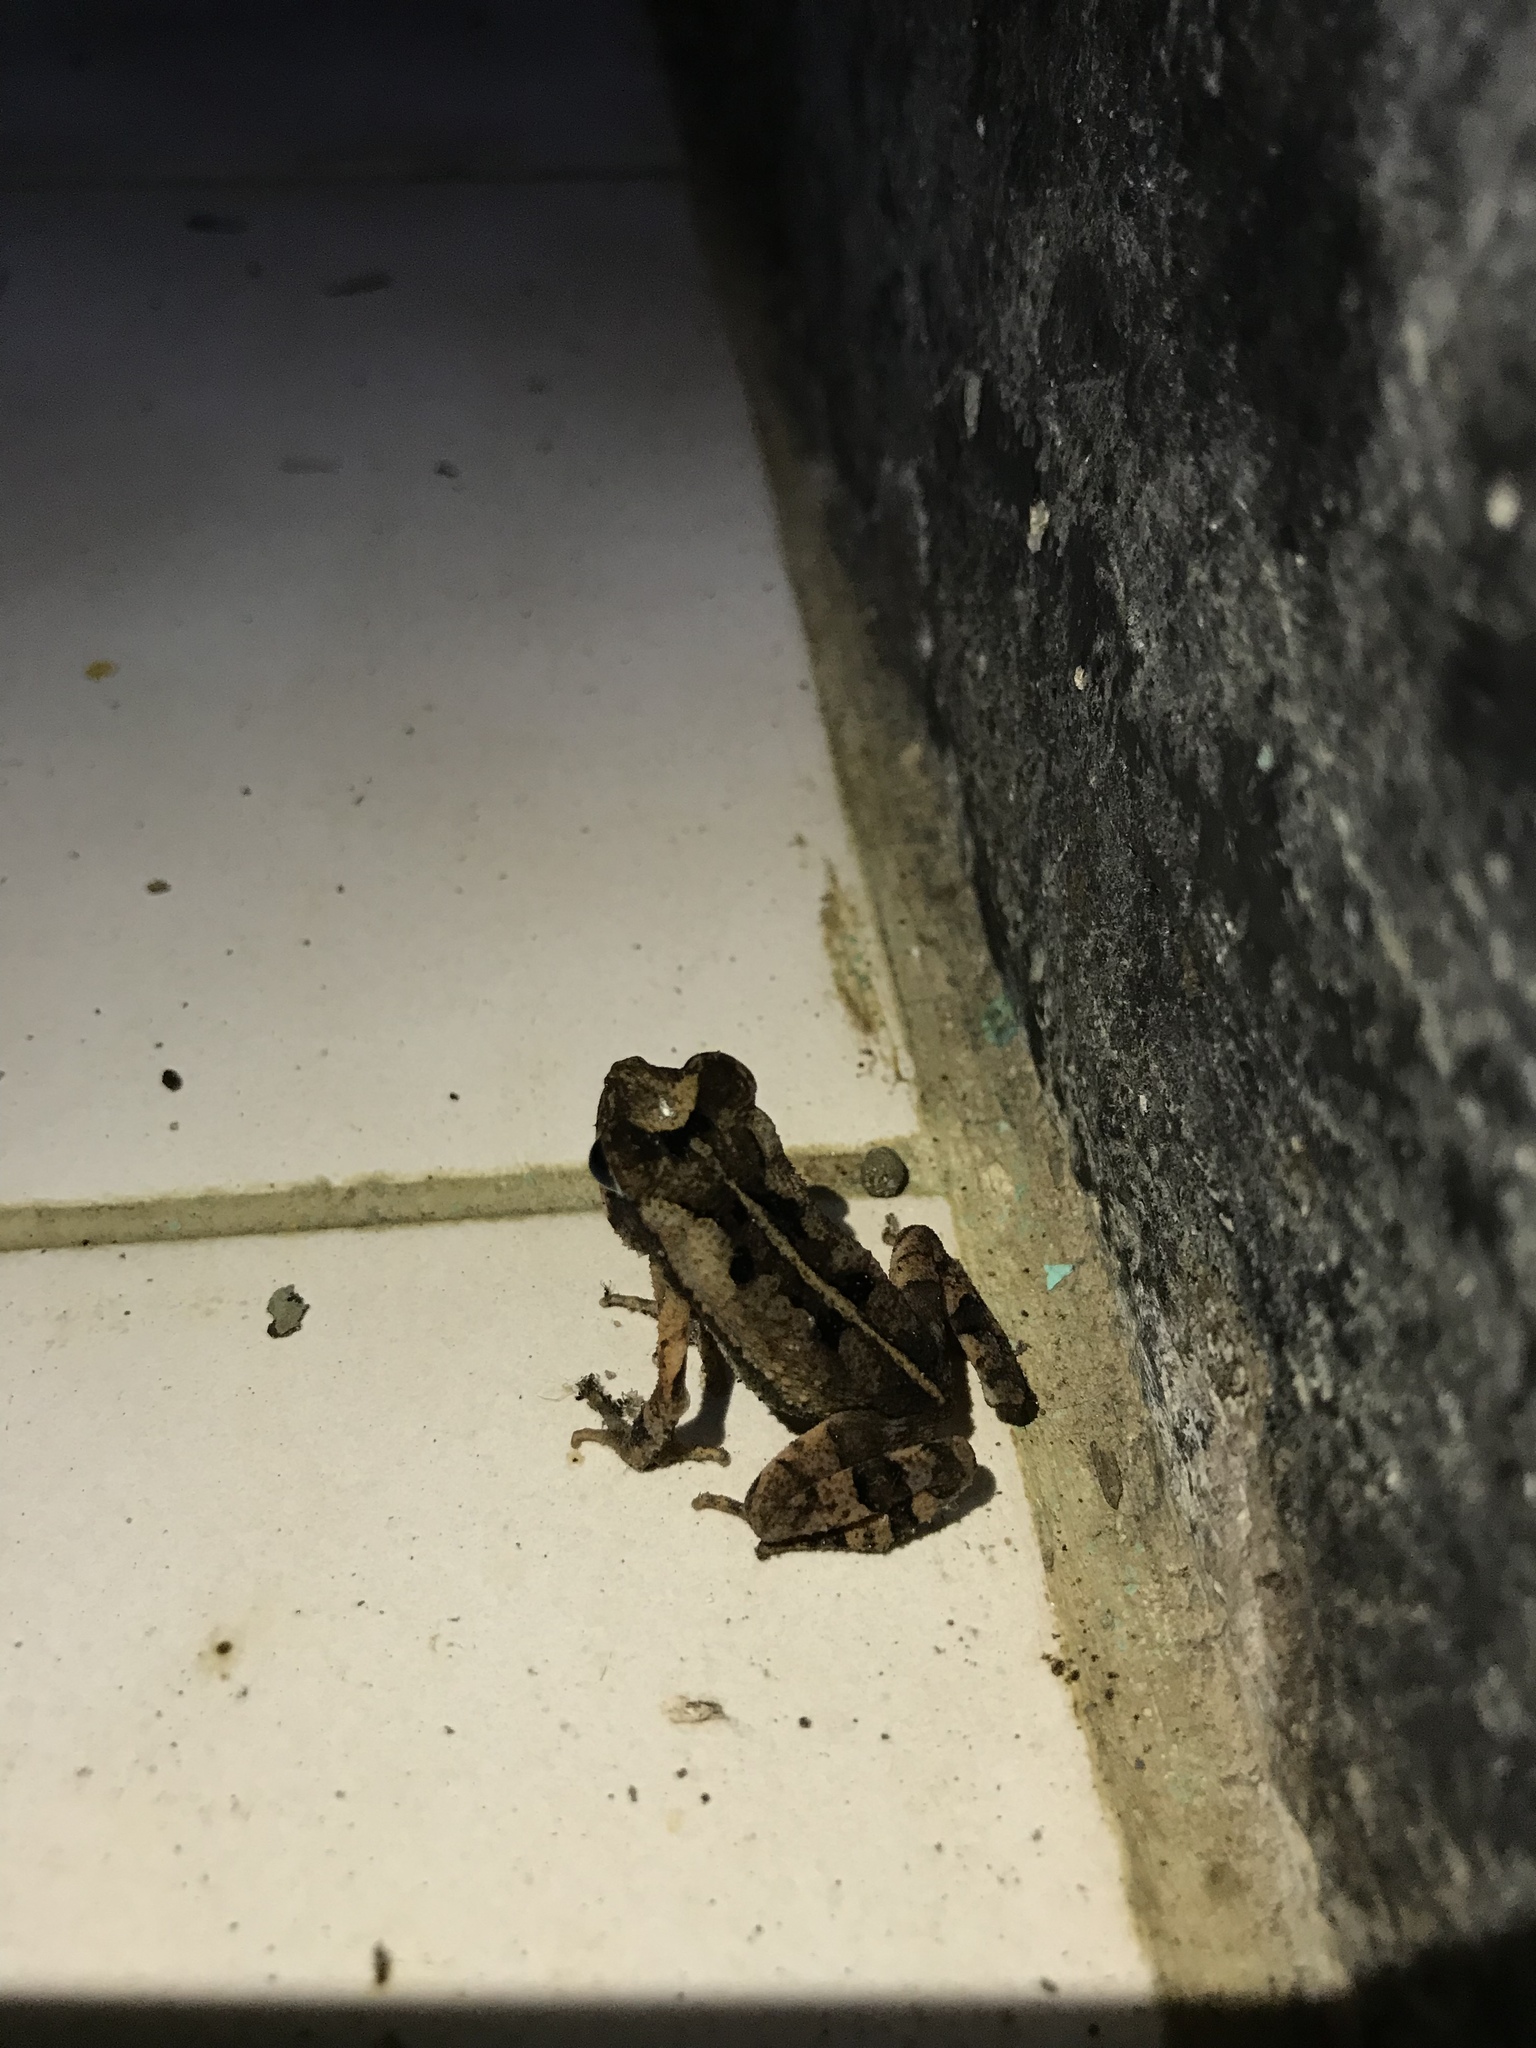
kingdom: Animalia
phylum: Chordata
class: Amphibia
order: Anura
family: Bufonidae
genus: Incilius
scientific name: Incilius aucoinae
